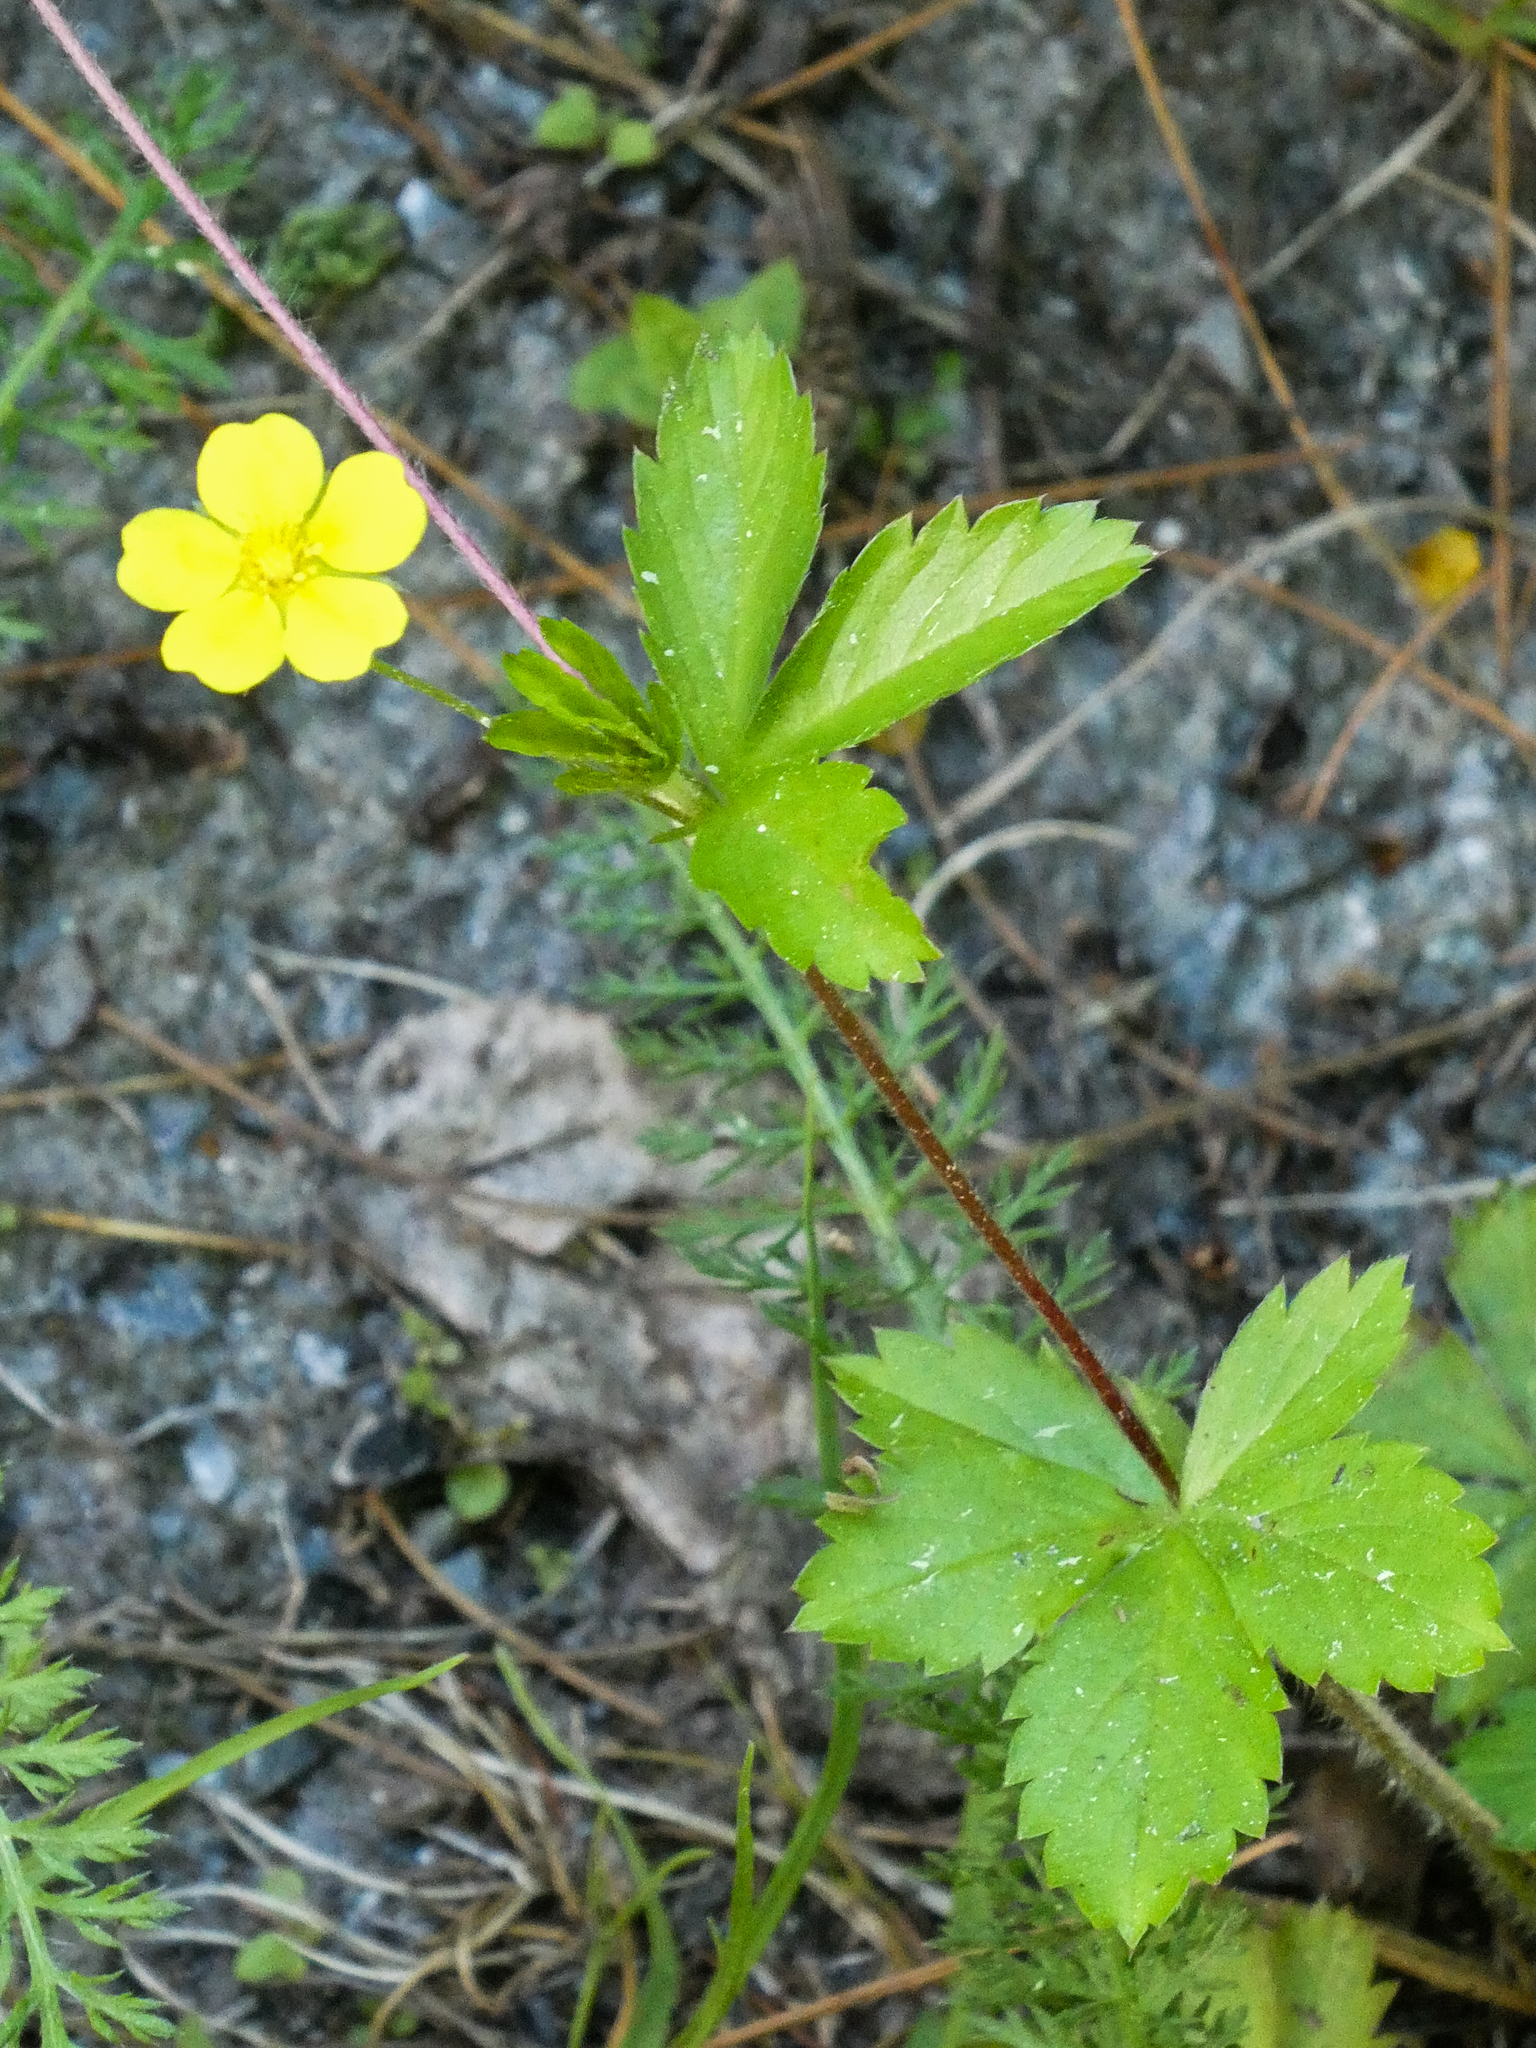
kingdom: Plantae
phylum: Tracheophyta
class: Magnoliopsida
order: Rosales
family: Rosaceae
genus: Potentilla
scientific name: Potentilla simplex
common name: Old field cinquefoil
